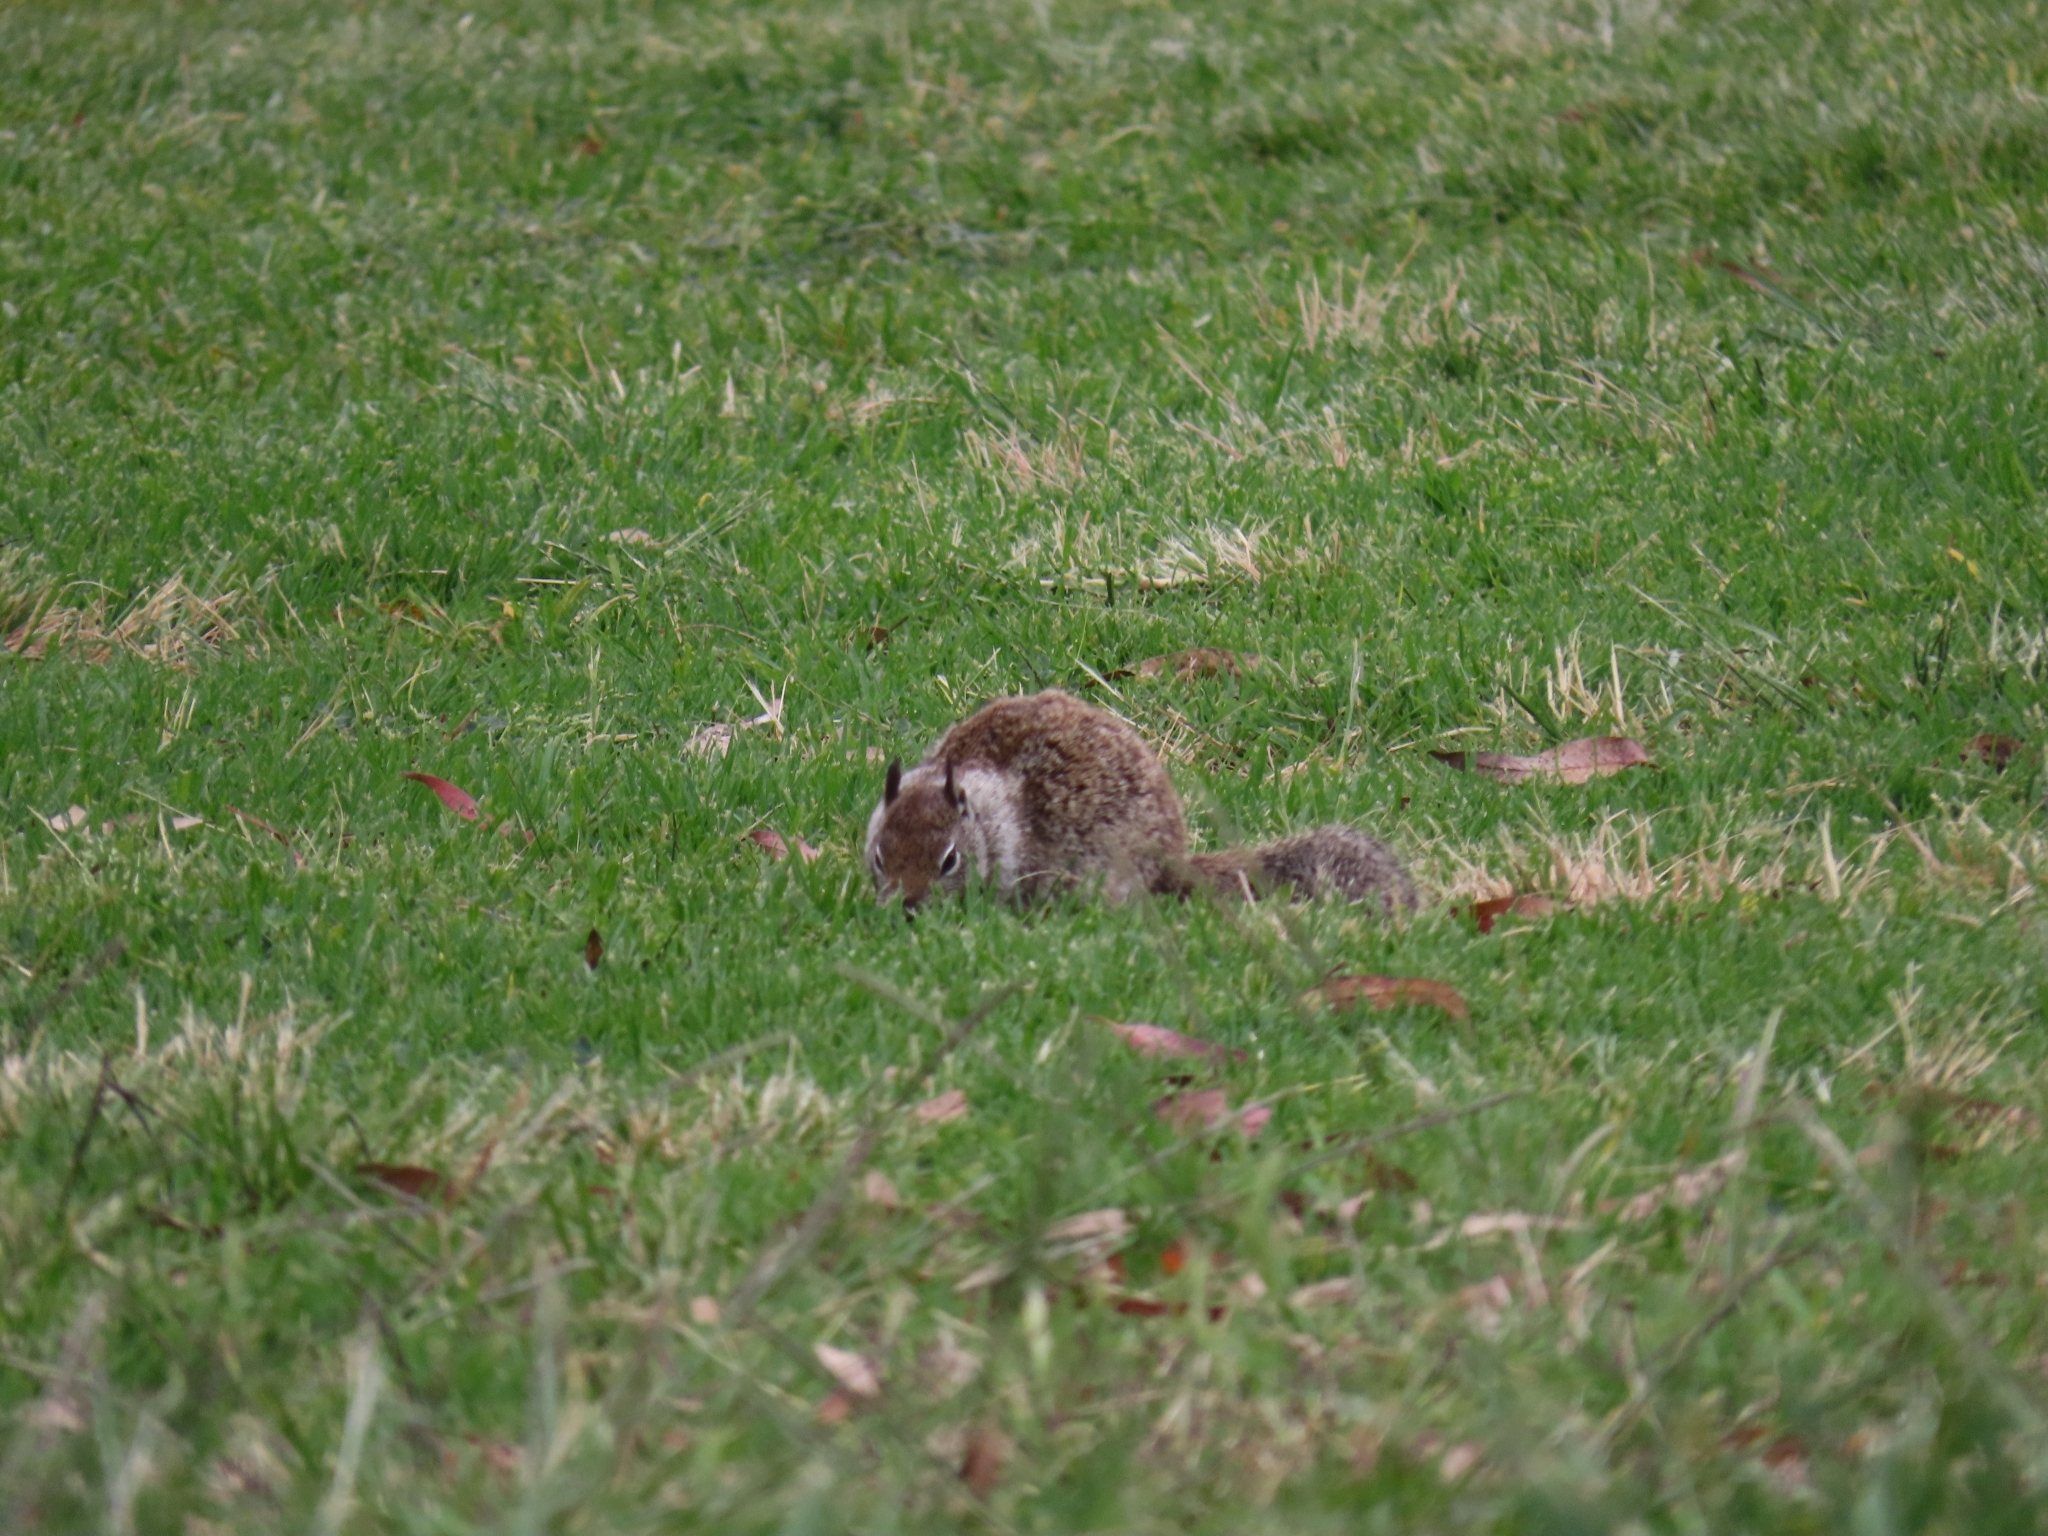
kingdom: Animalia
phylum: Chordata
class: Mammalia
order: Rodentia
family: Sciuridae
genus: Otospermophilus
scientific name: Otospermophilus beecheyi
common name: California ground squirrel
